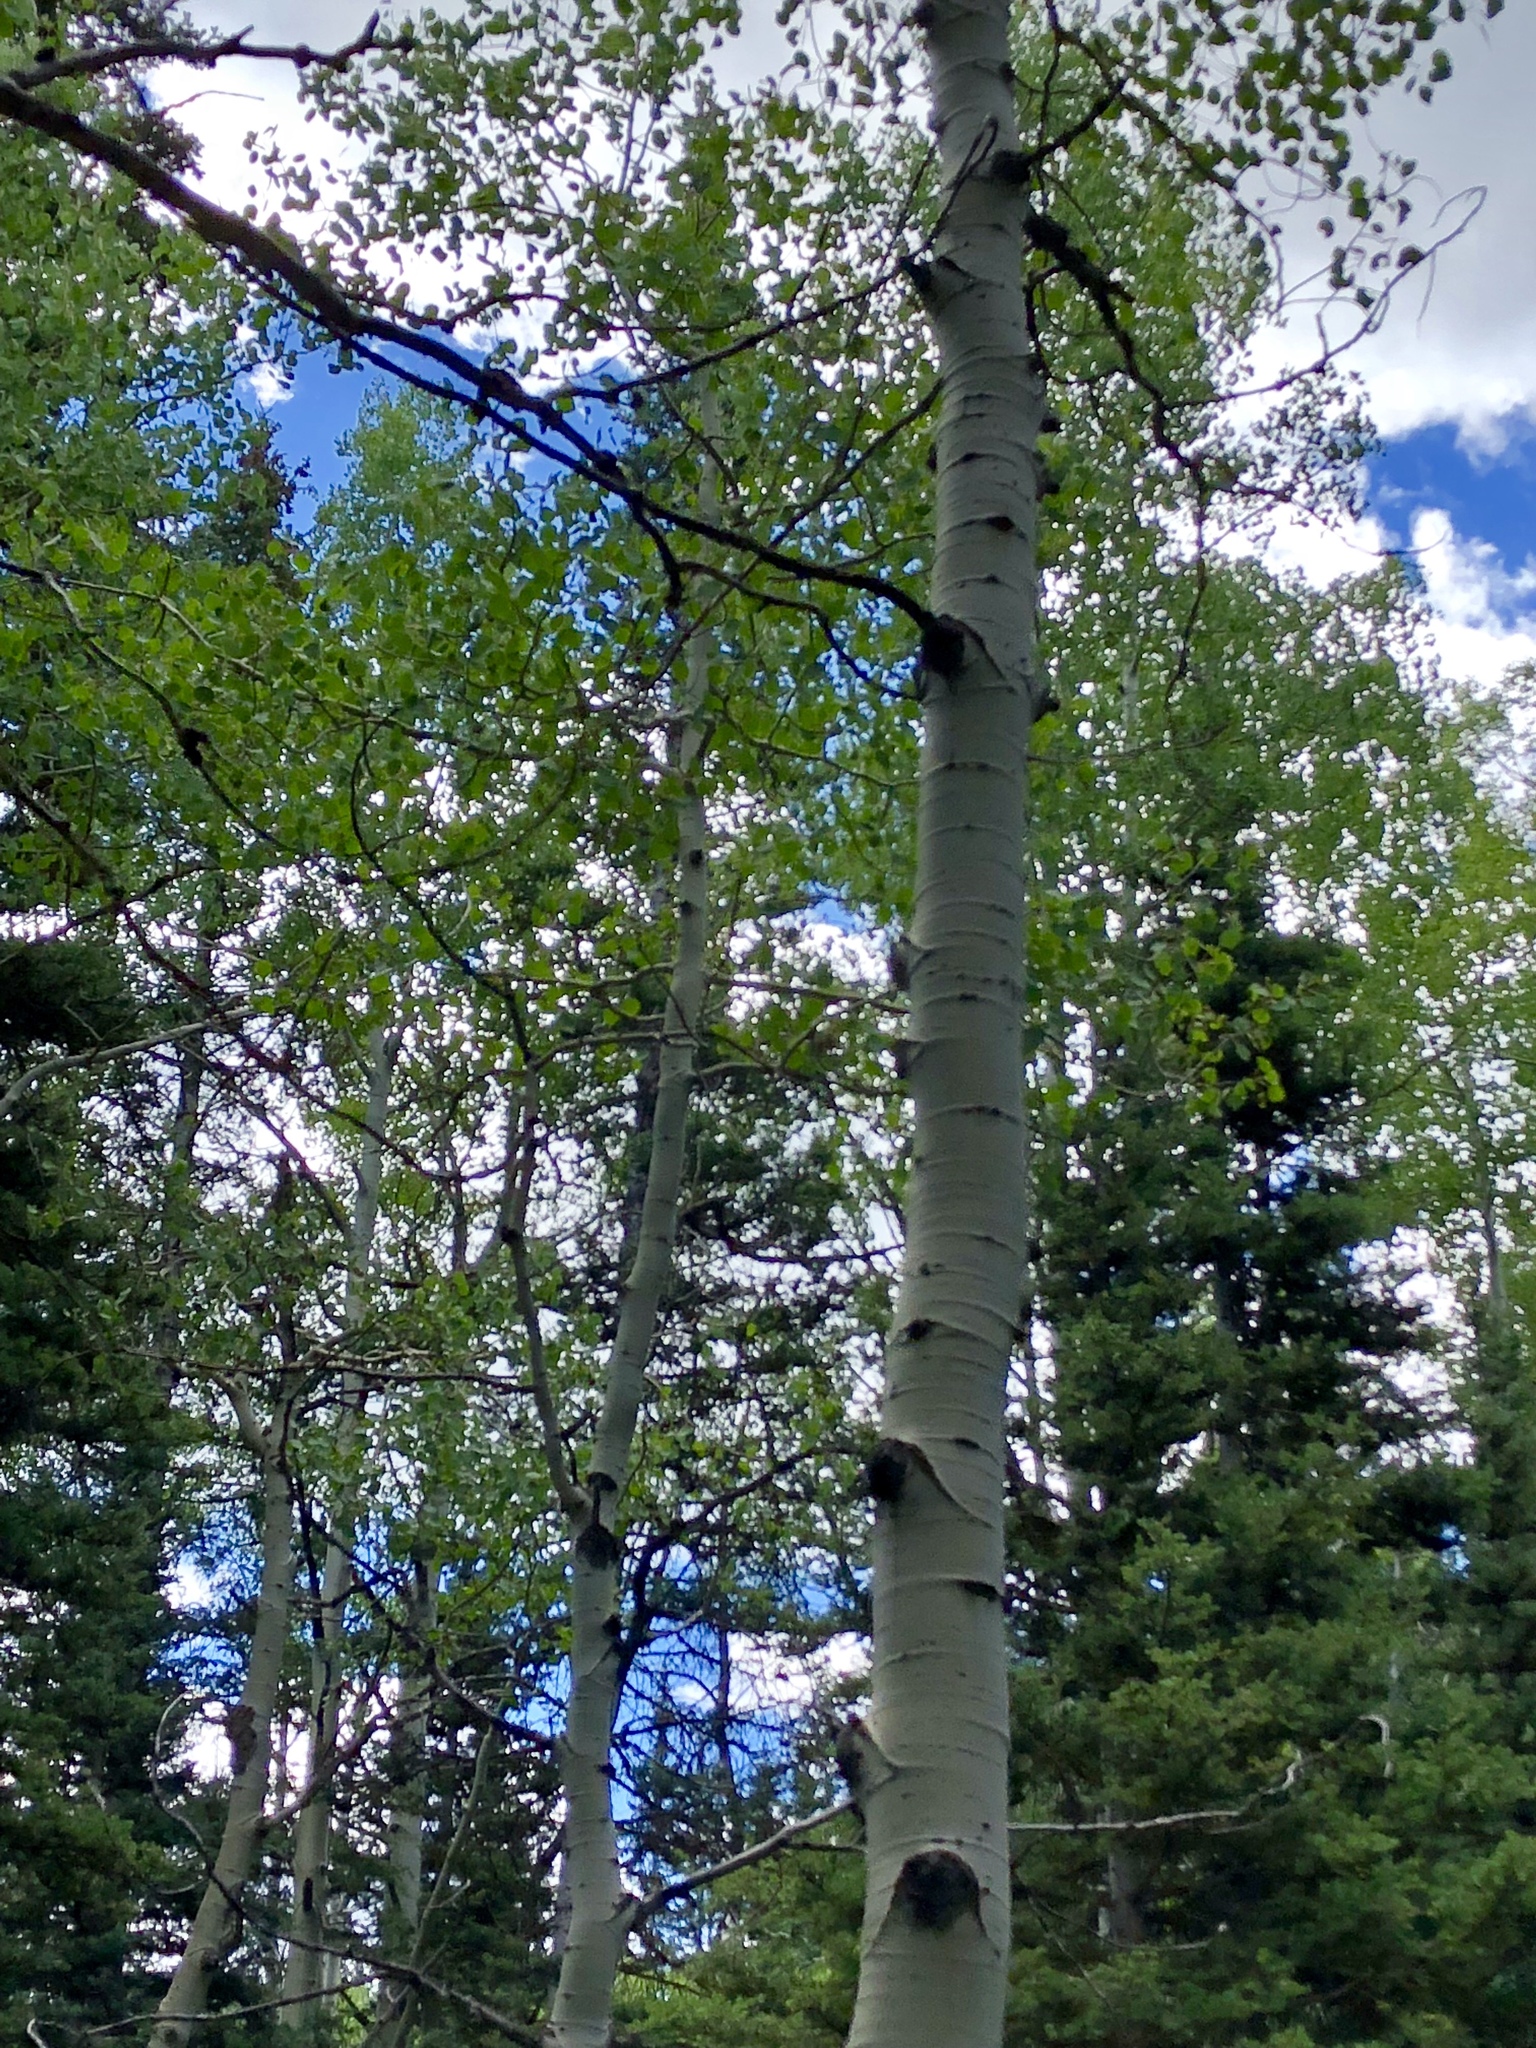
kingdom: Plantae
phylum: Tracheophyta
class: Magnoliopsida
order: Malpighiales
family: Salicaceae
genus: Populus
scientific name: Populus tremuloides
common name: Quaking aspen
